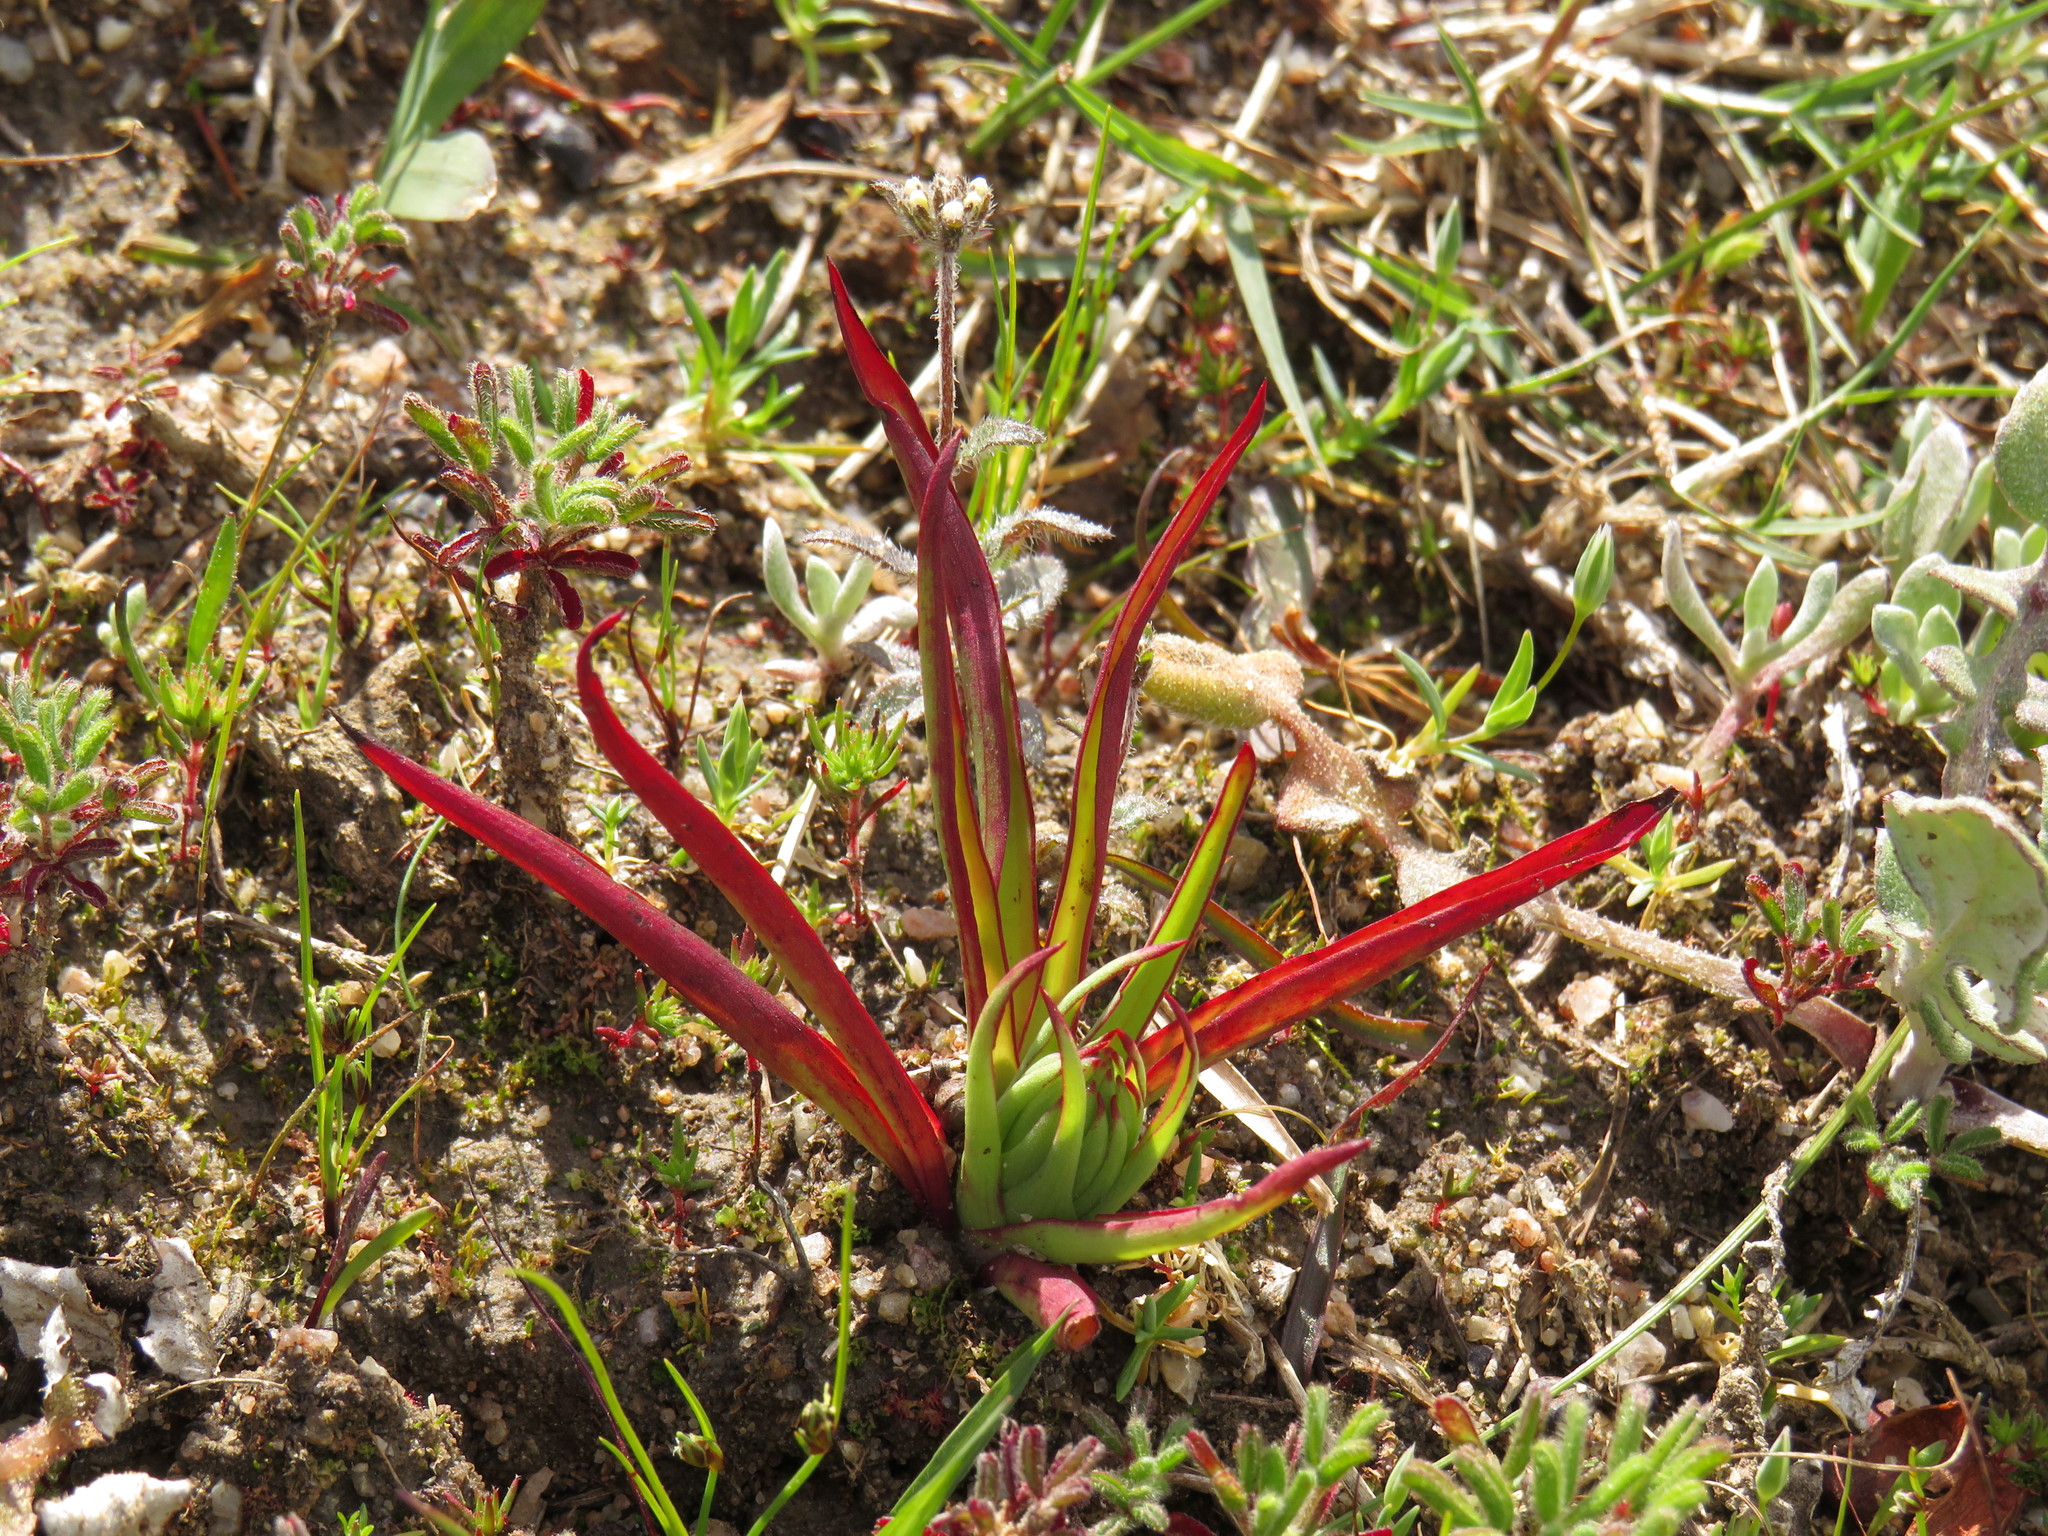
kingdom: Plantae
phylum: Tracheophyta
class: Liliopsida
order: Asparagales
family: Orchidaceae
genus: Disa
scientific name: Disa bracteata
